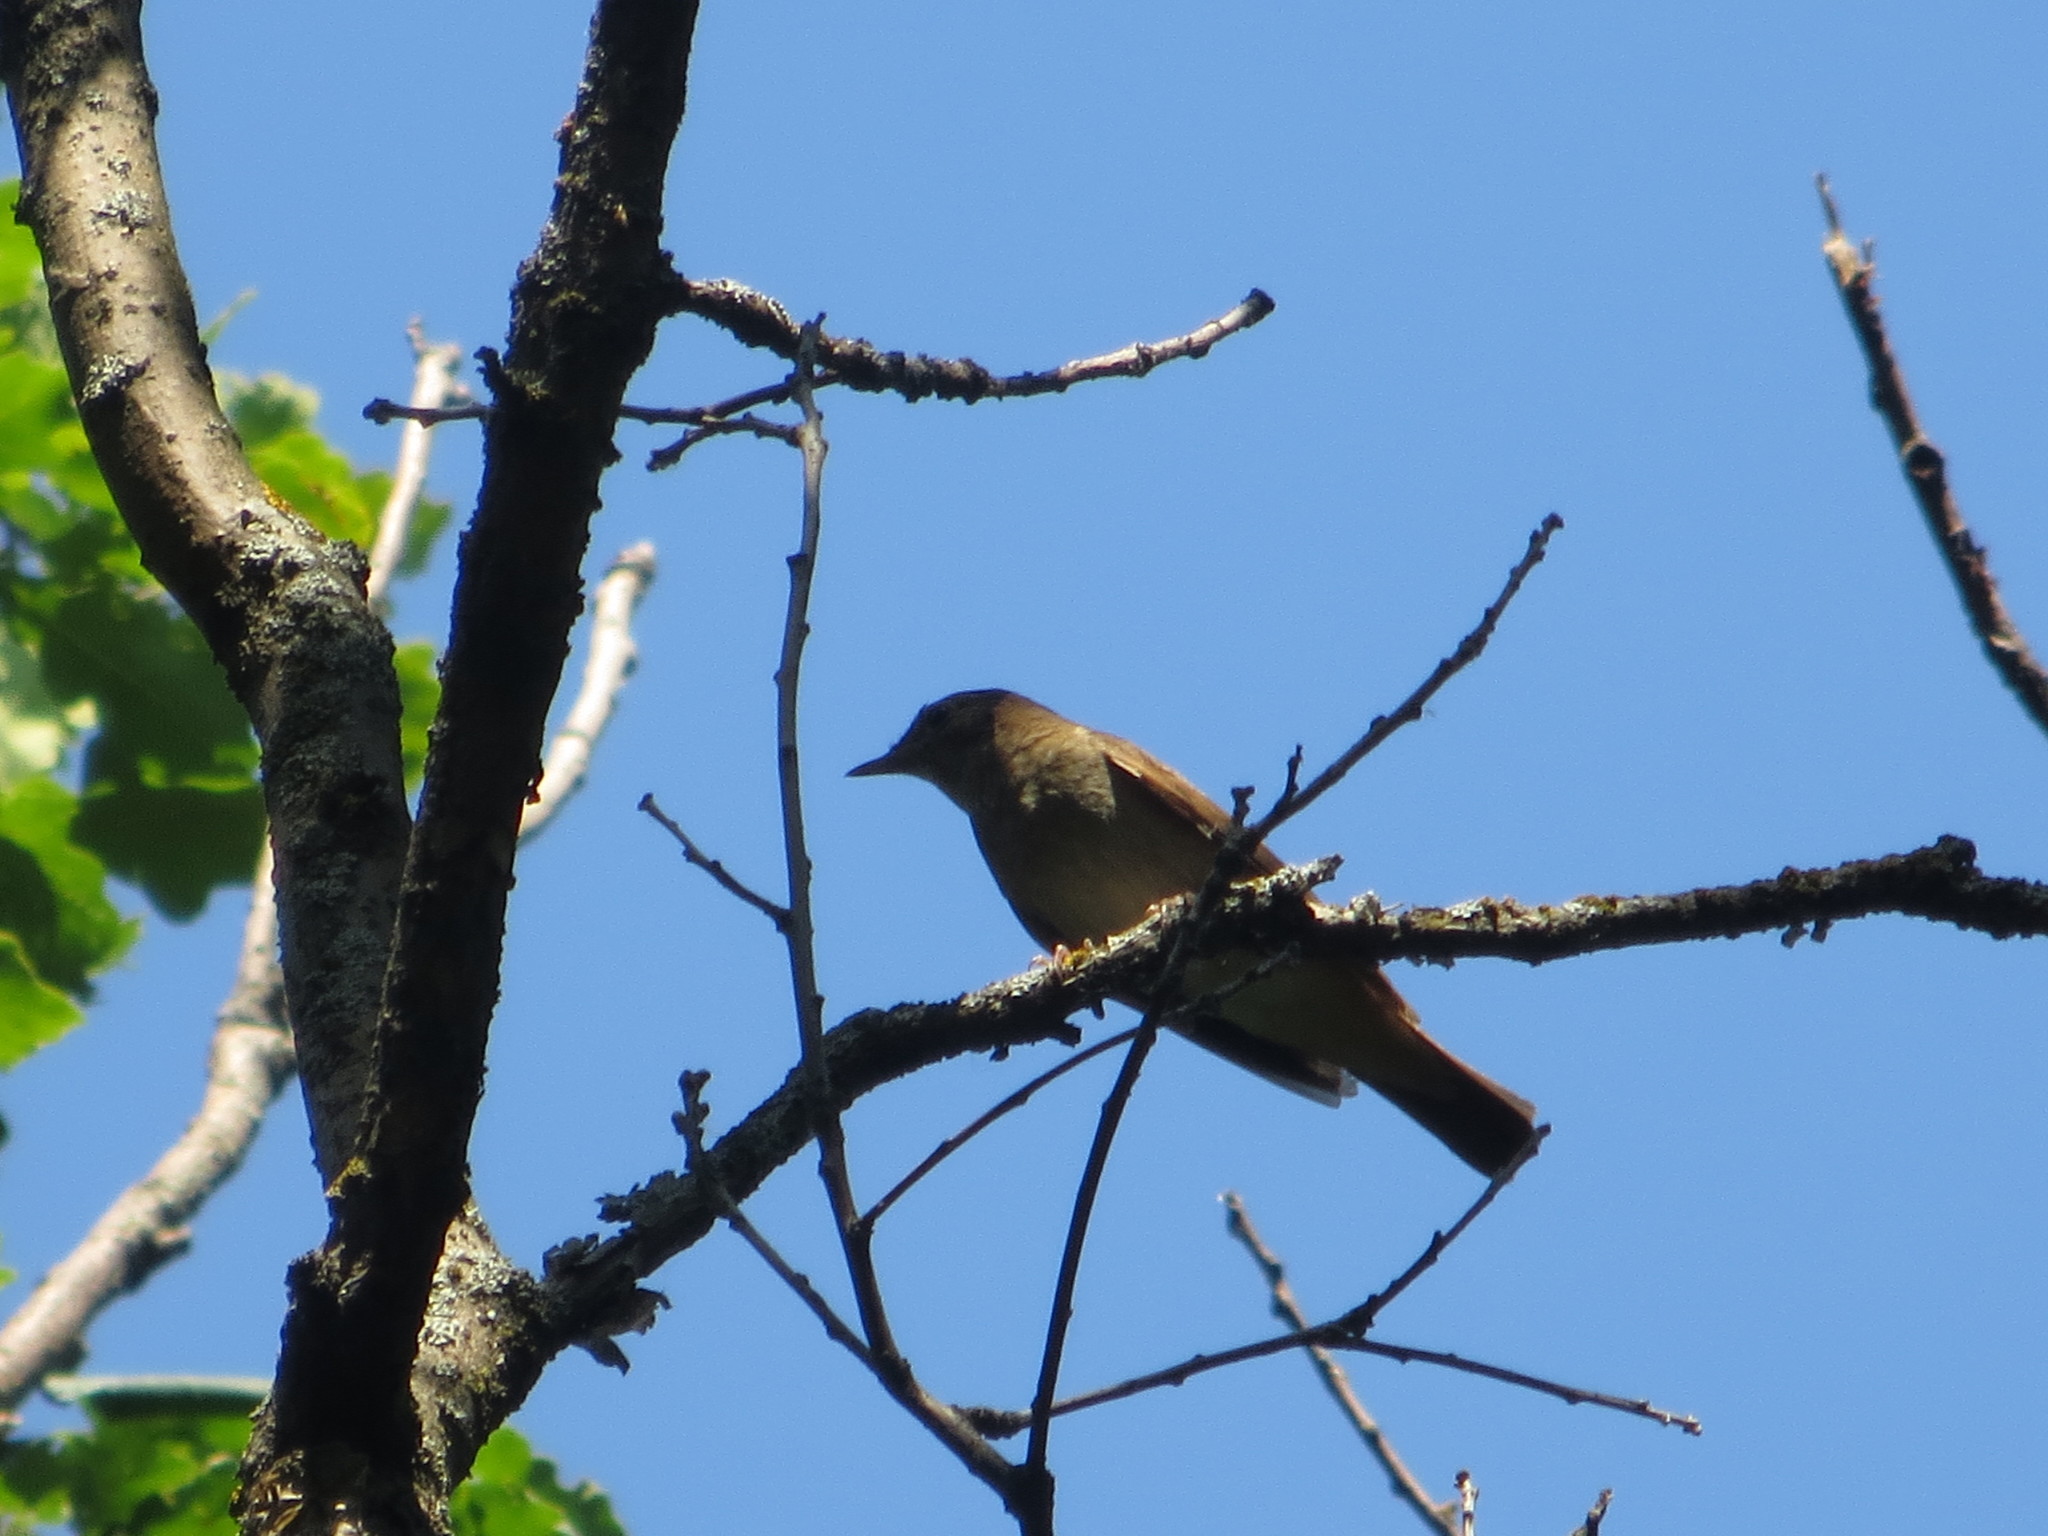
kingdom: Animalia
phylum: Chordata
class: Aves
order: Passeriformes
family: Muscicapidae
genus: Luscinia
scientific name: Luscinia luscinia
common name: Thrush nightingale
